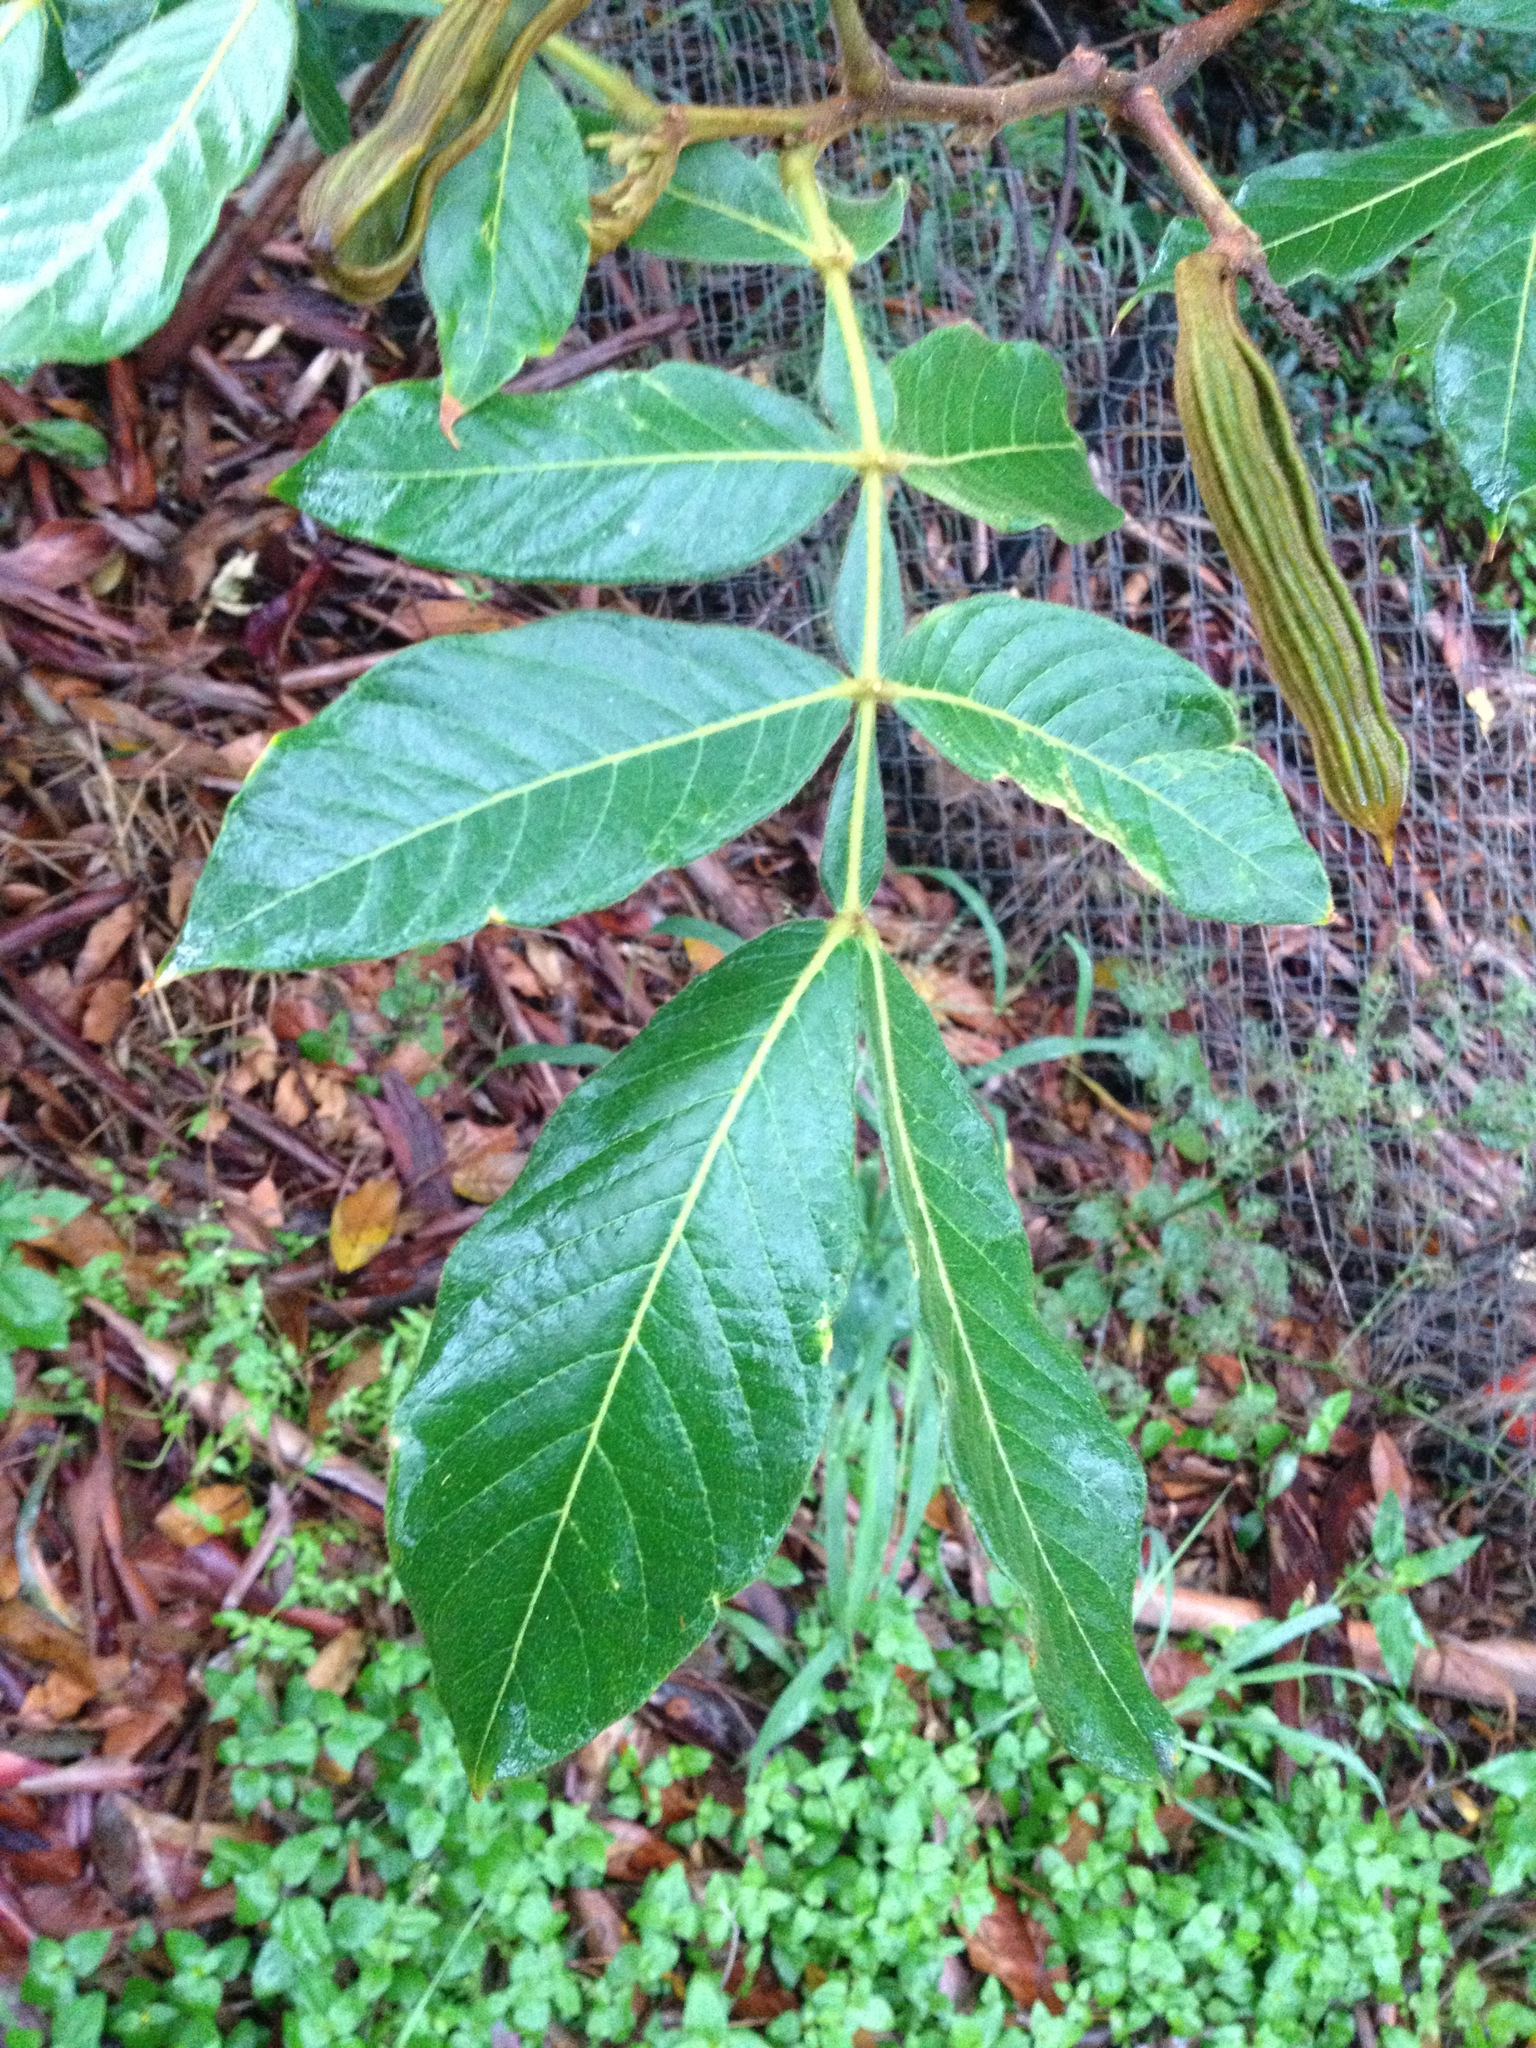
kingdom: Plantae
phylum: Tracheophyta
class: Magnoliopsida
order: Fabales
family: Fabaceae
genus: Inga
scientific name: Inga edulis
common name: Ice cream bean
